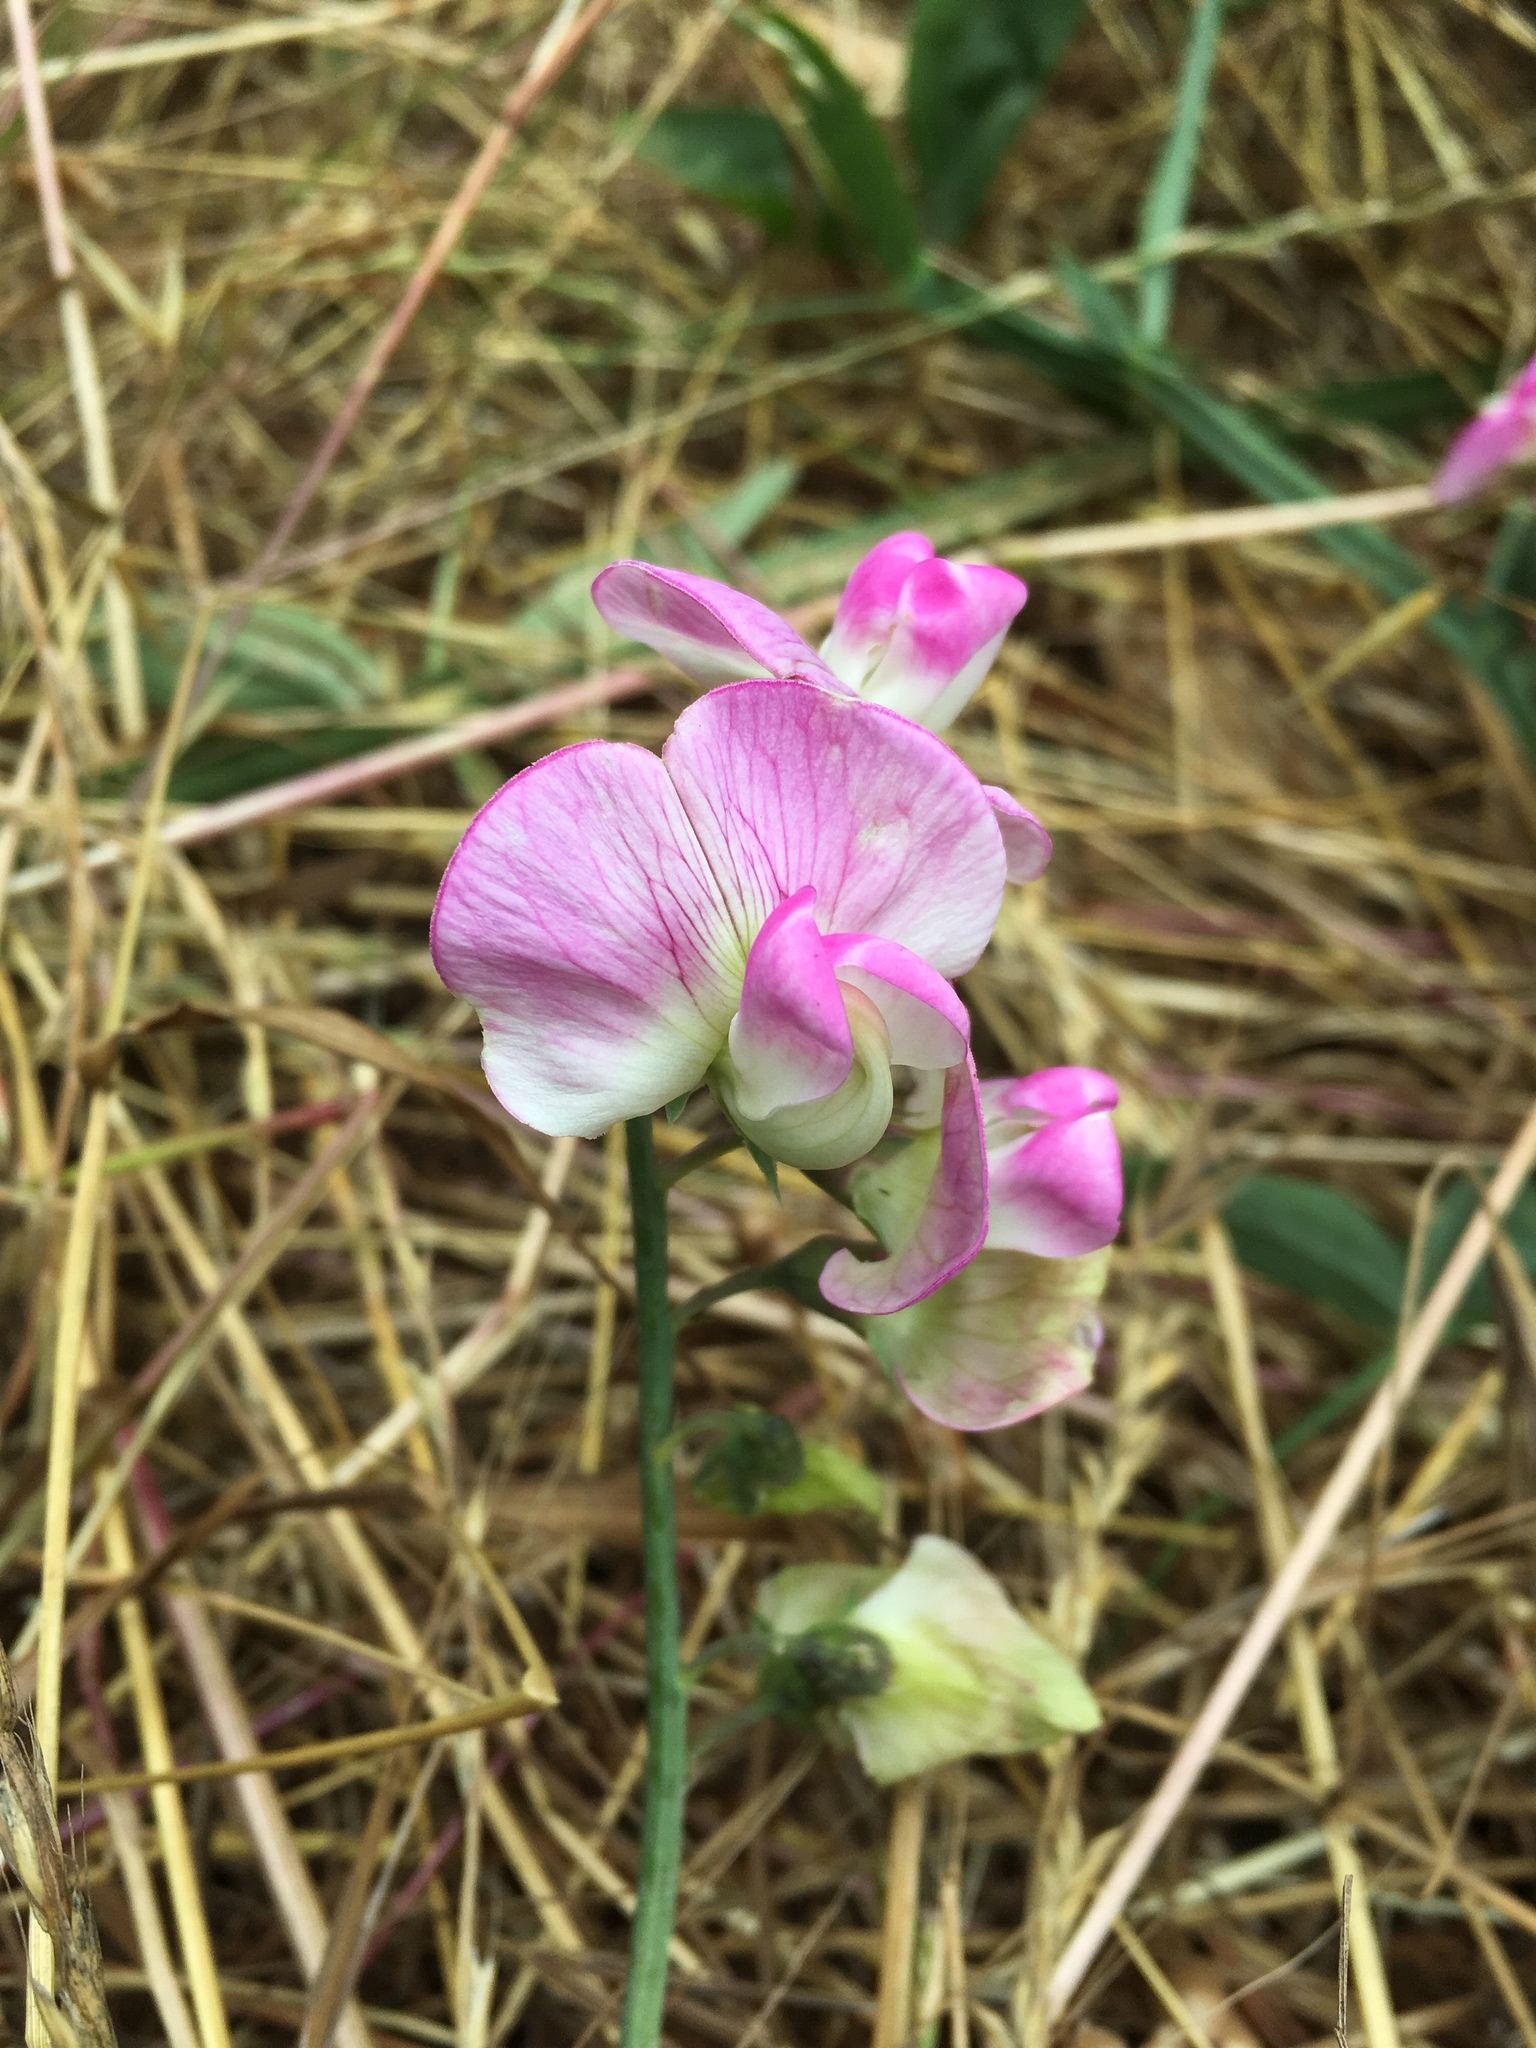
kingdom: Plantae
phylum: Tracheophyta
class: Magnoliopsida
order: Fabales
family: Fabaceae
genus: Lathyrus
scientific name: Lathyrus latifolius
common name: Perennial pea
